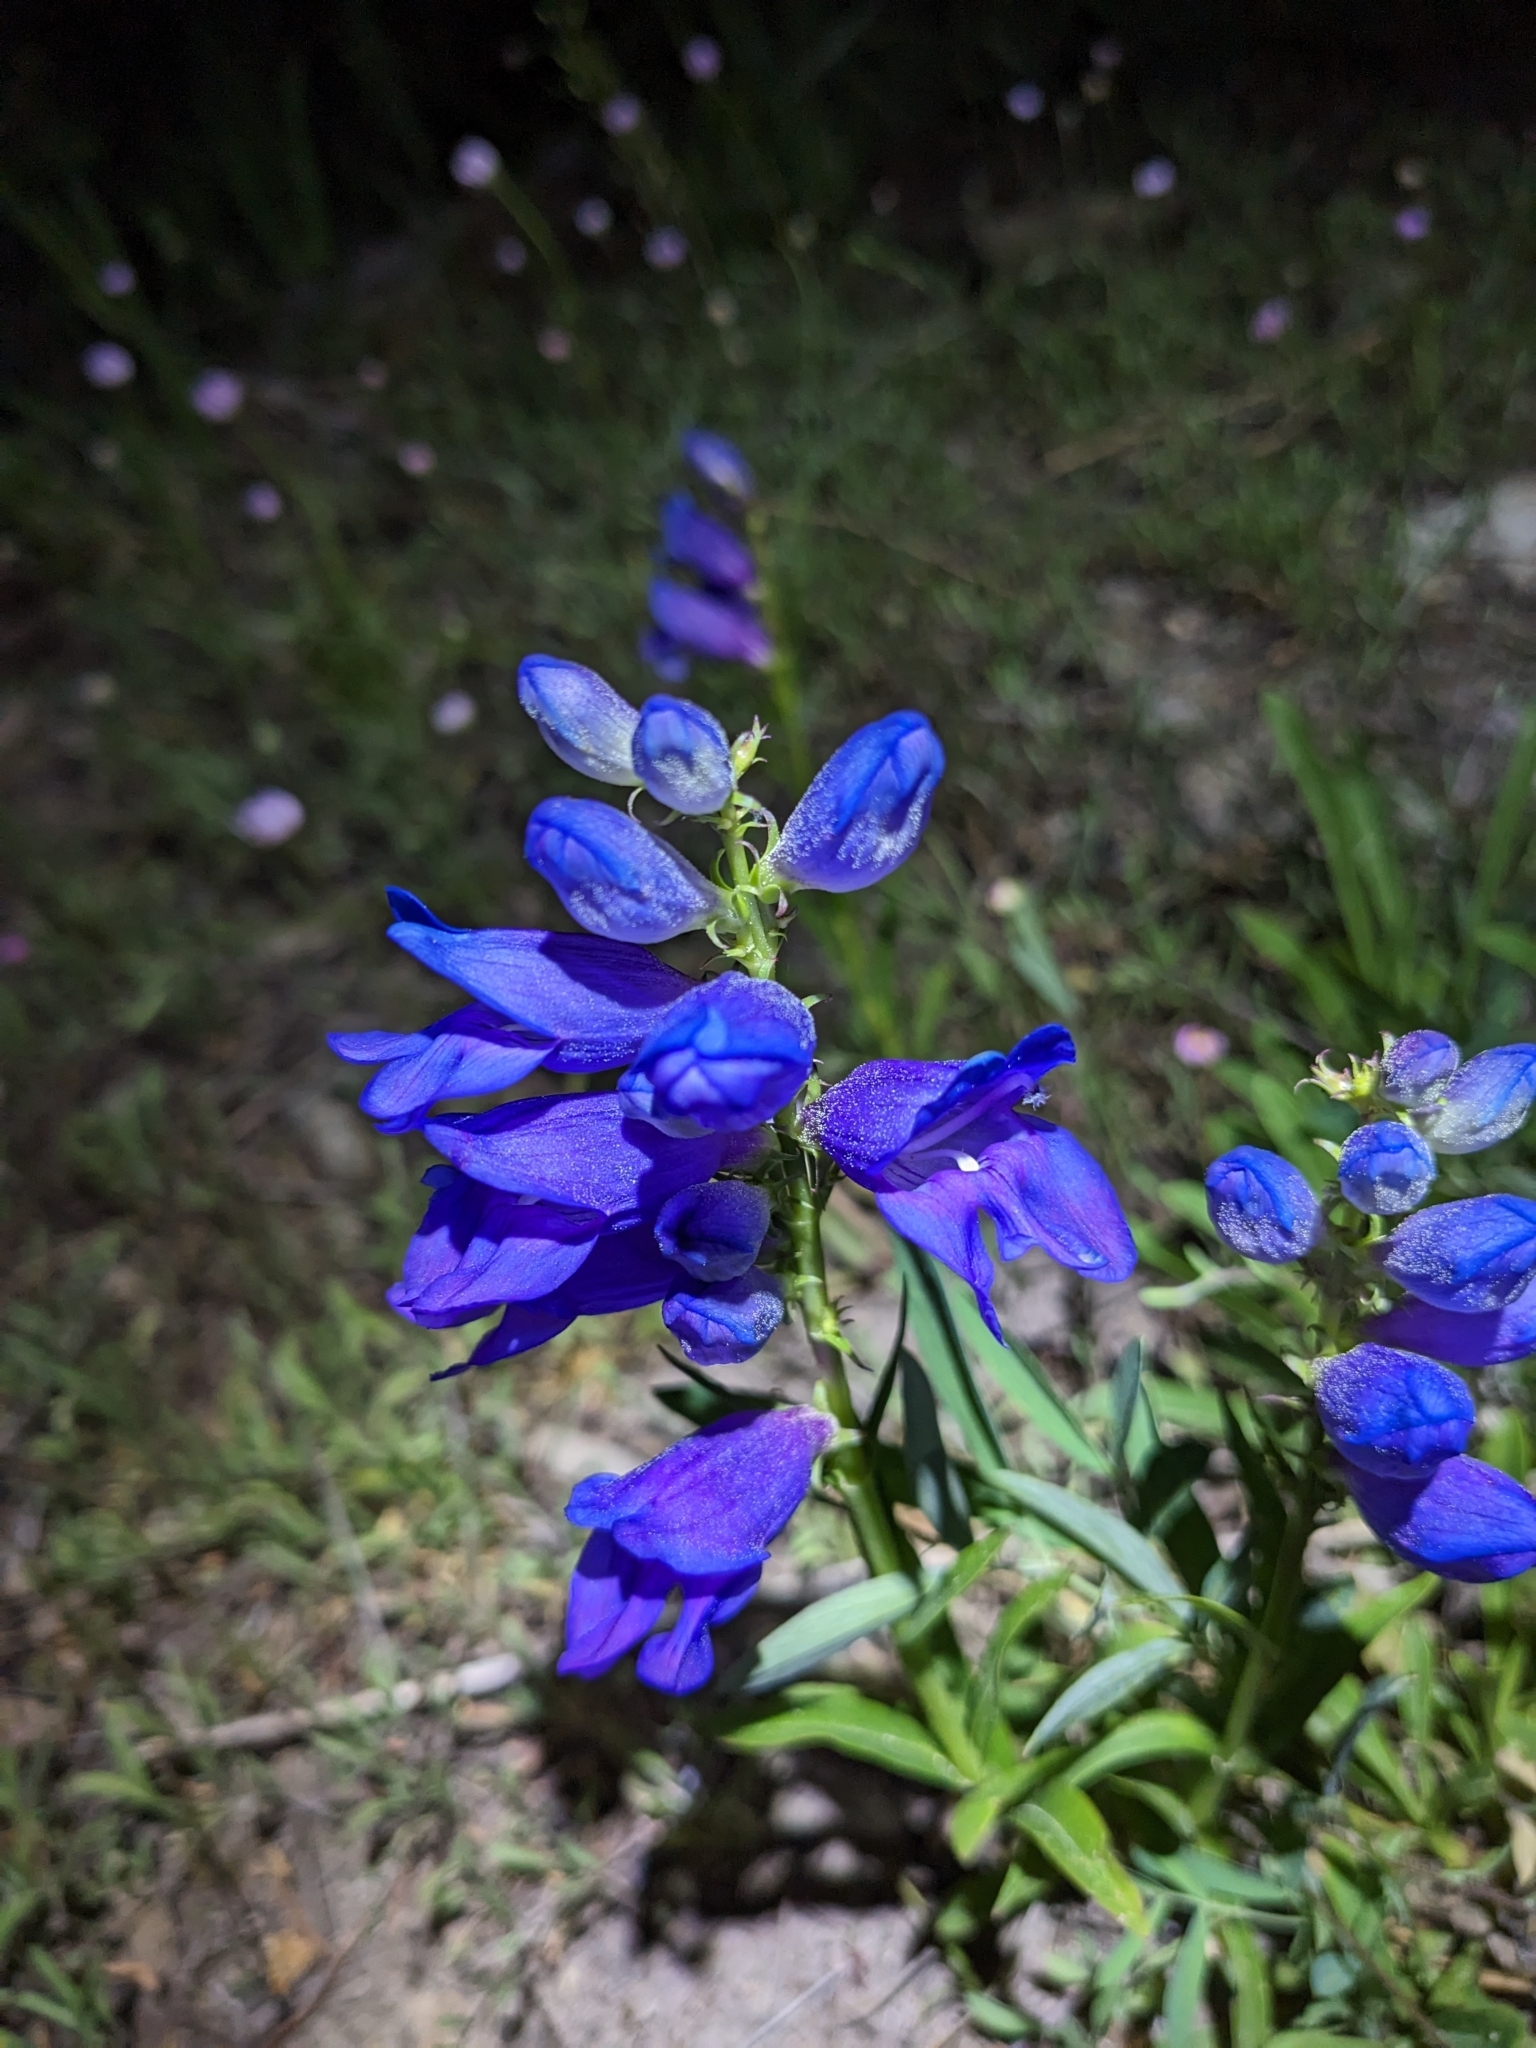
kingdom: Plantae
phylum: Tracheophyta
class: Magnoliopsida
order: Lamiales
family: Plantaginaceae
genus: Penstemon
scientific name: Penstemon strictus
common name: Rocky mountain penstemon
